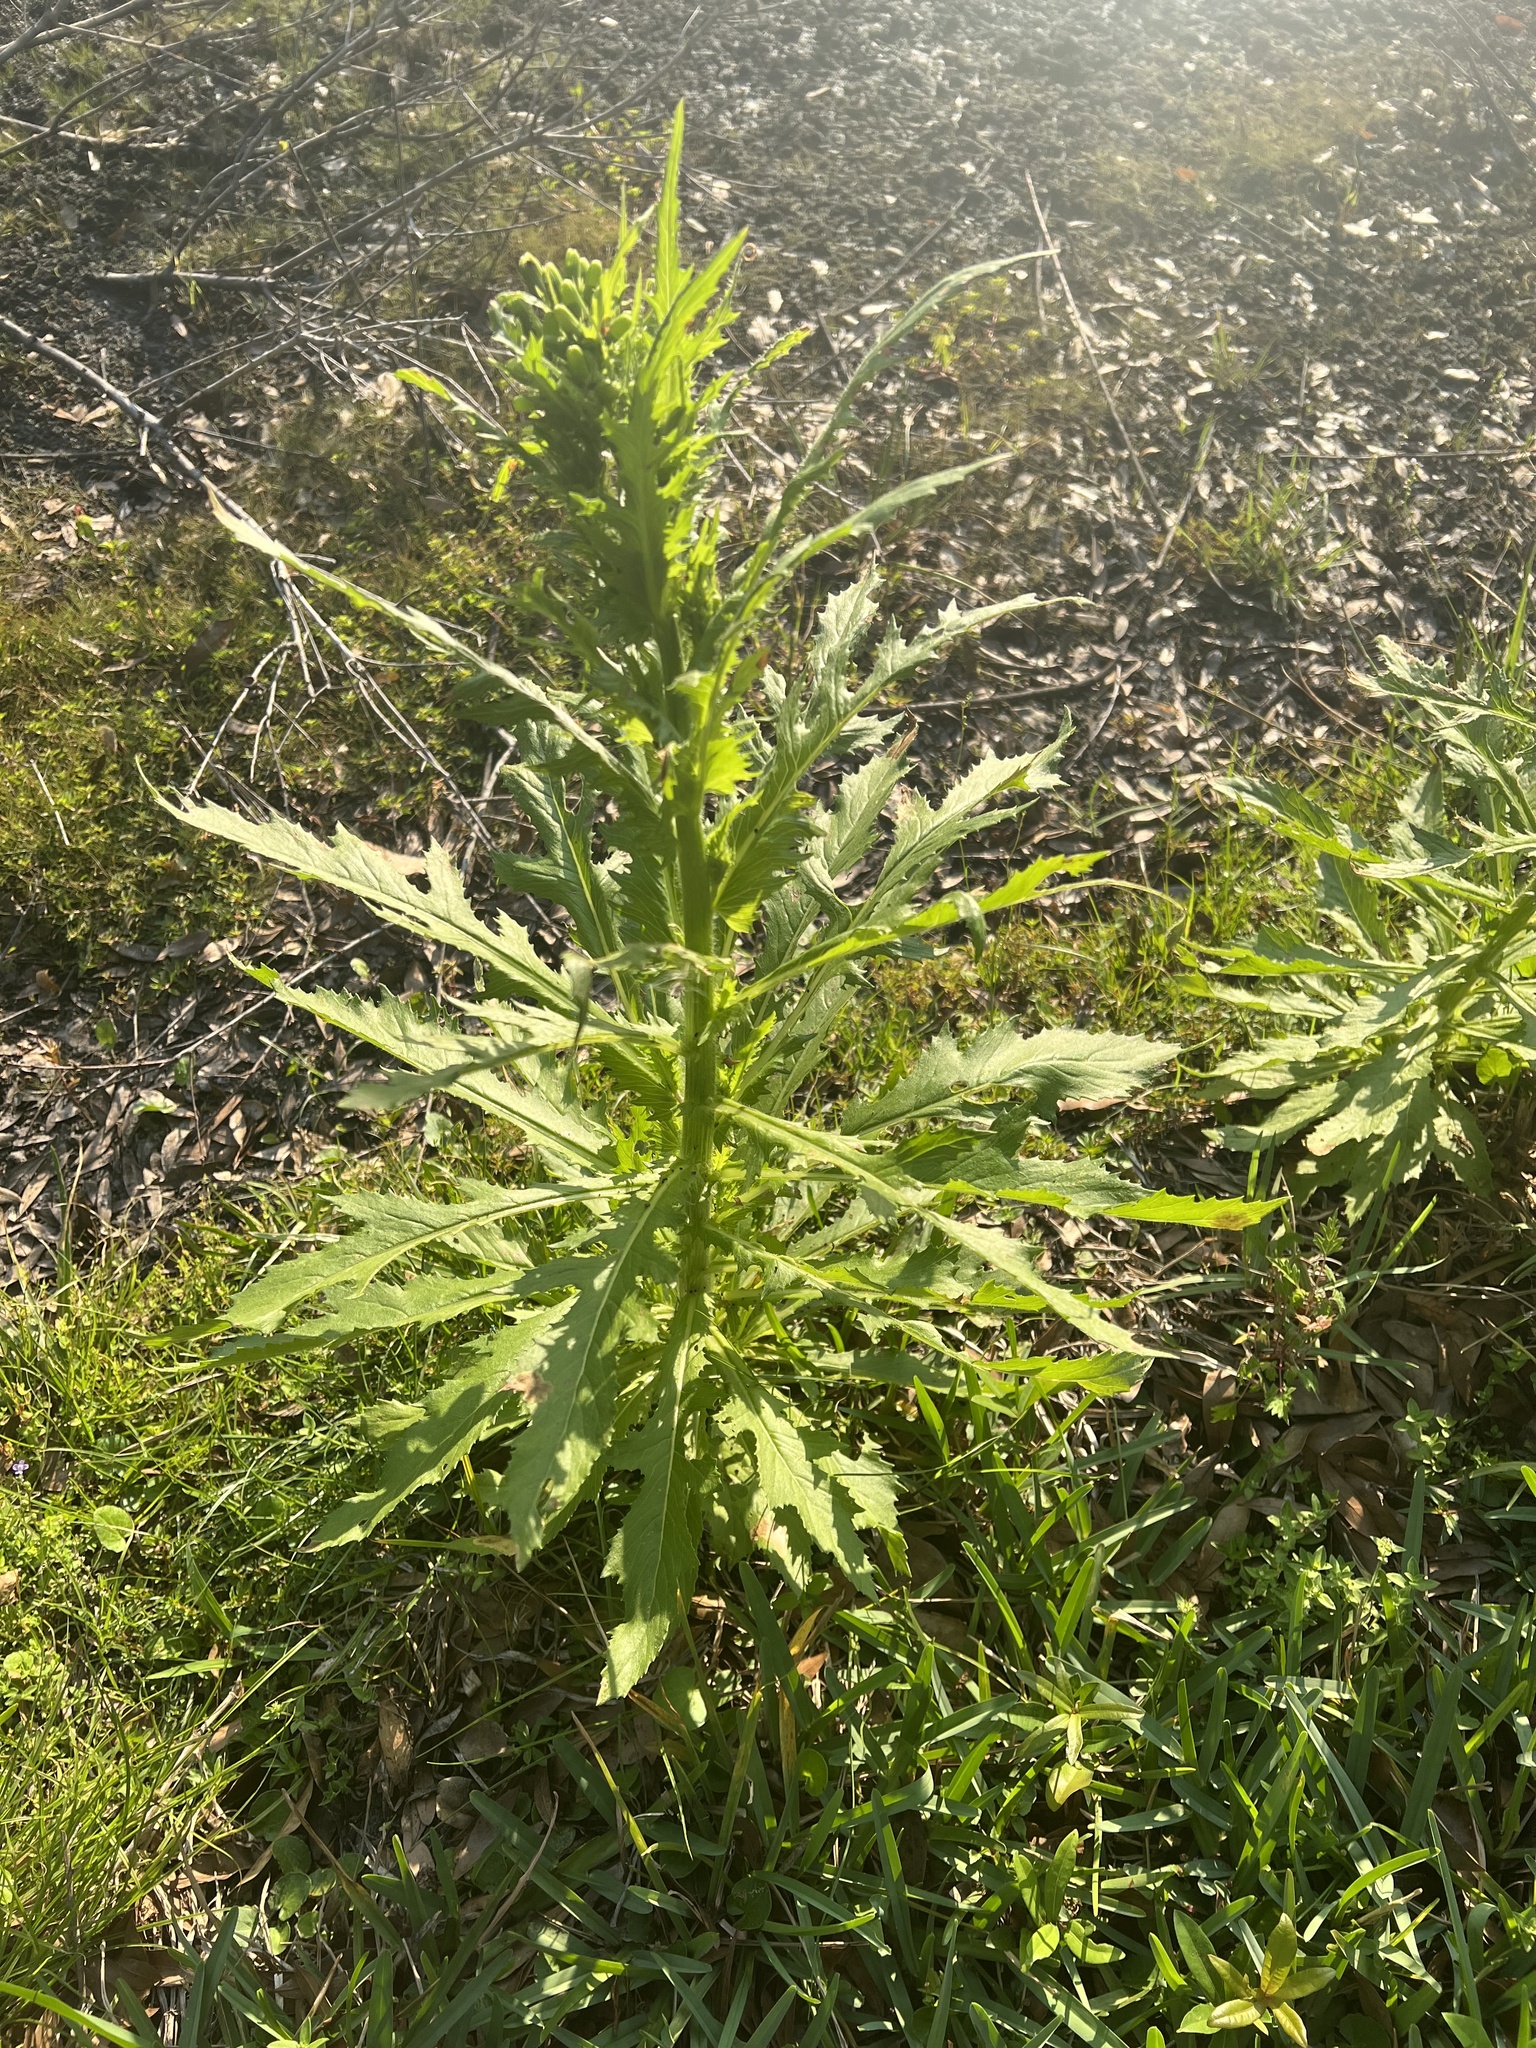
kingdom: Plantae
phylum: Tracheophyta
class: Magnoliopsida
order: Asterales
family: Asteraceae
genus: Erechtites
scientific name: Erechtites hieraciifolius
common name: American burnweed
